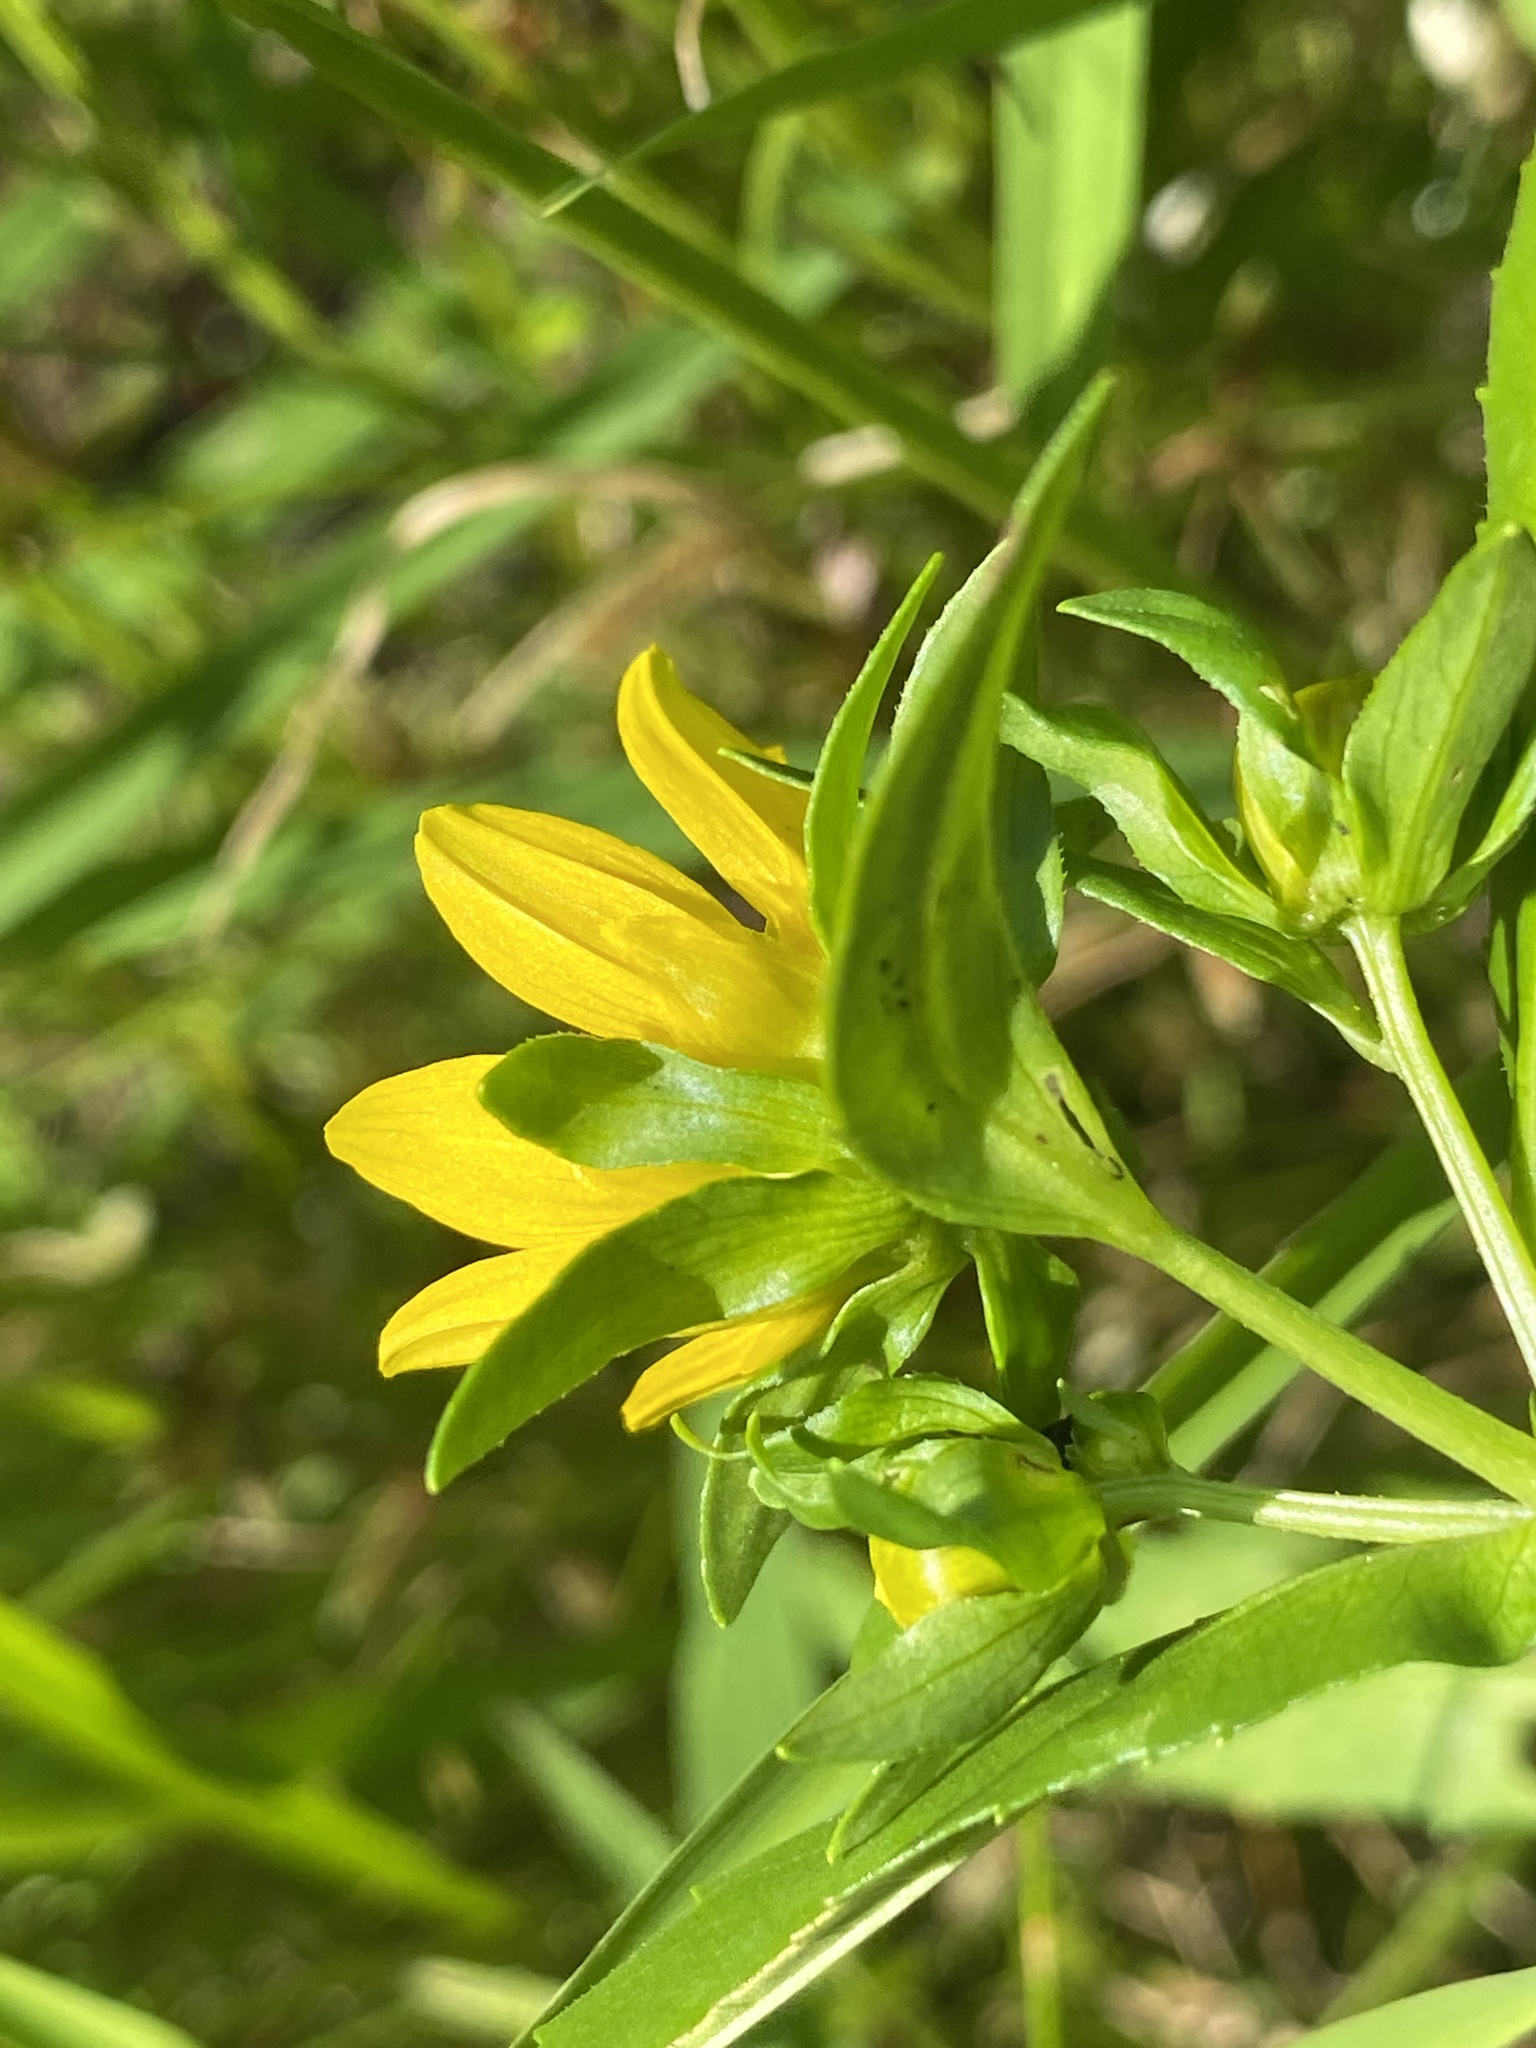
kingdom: Plantae
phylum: Tracheophyta
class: Magnoliopsida
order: Asterales
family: Asteraceae
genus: Bidens
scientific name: Bidens cernua
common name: Nodding bur-marigold
